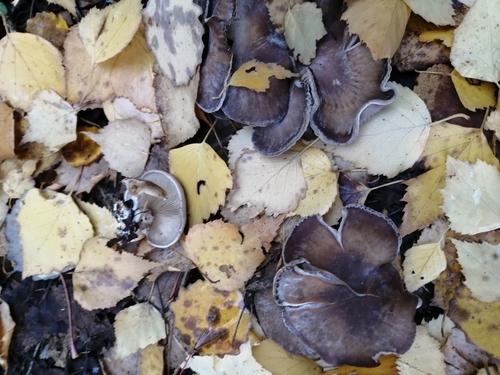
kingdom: Fungi
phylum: Basidiomycota
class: Agaricomycetes
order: Agaricales
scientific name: Agaricales
